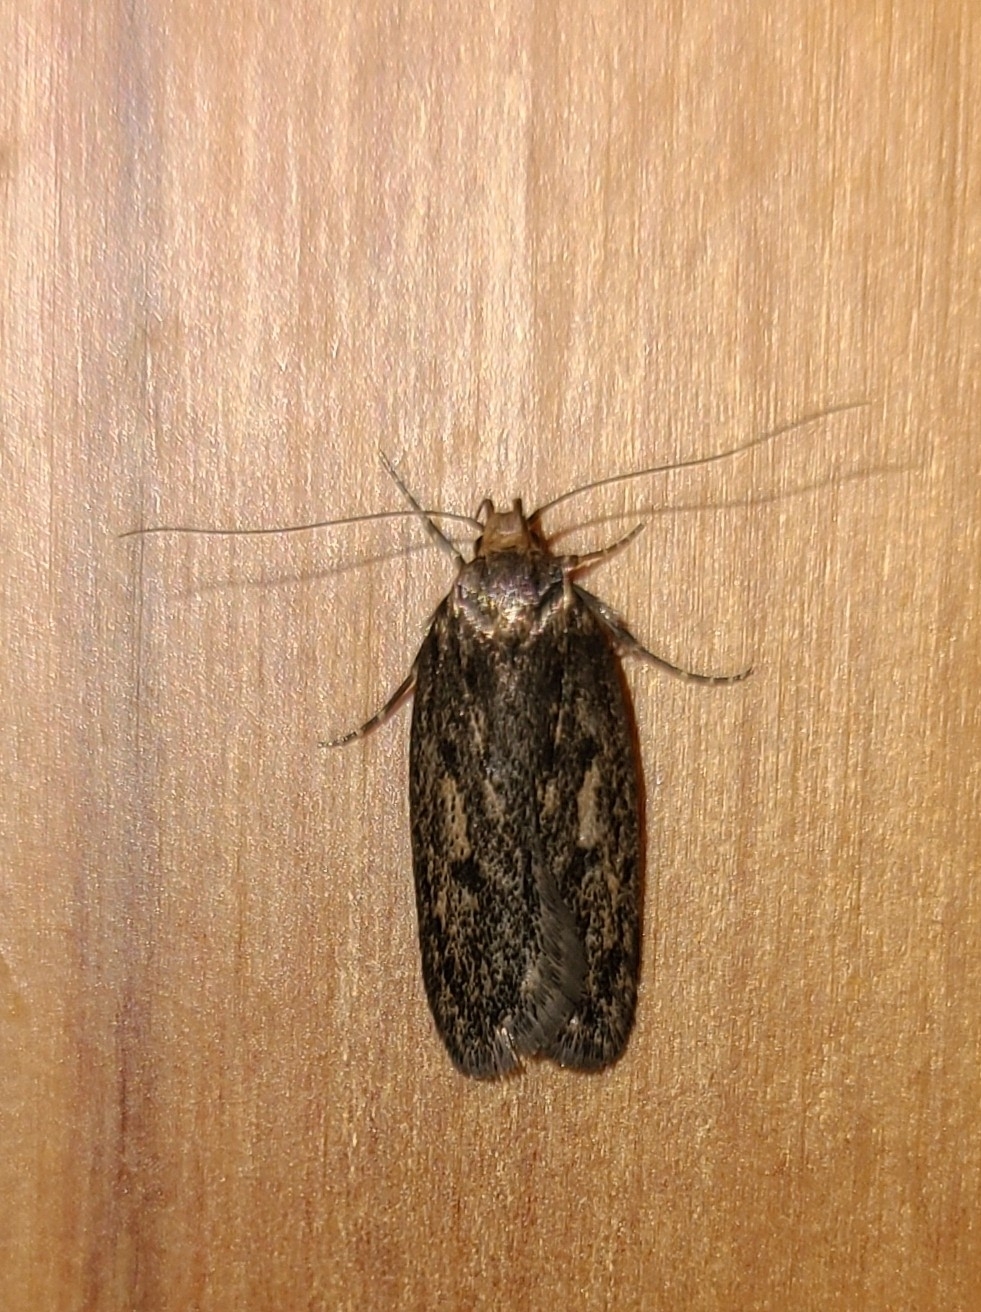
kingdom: Animalia
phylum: Arthropoda
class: Insecta
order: Lepidoptera
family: Oecophoridae
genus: Hofmannophila
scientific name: Hofmannophila pseudospretella
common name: Brown house moth
